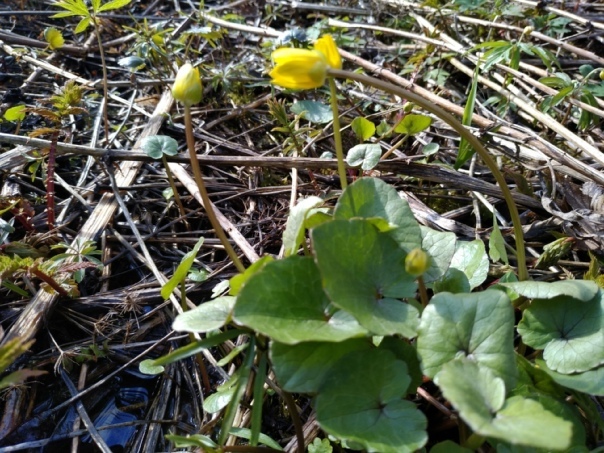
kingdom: Plantae
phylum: Tracheophyta
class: Magnoliopsida
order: Ranunculales
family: Ranunculaceae
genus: Ficaria
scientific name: Ficaria verna
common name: Lesser celandine
